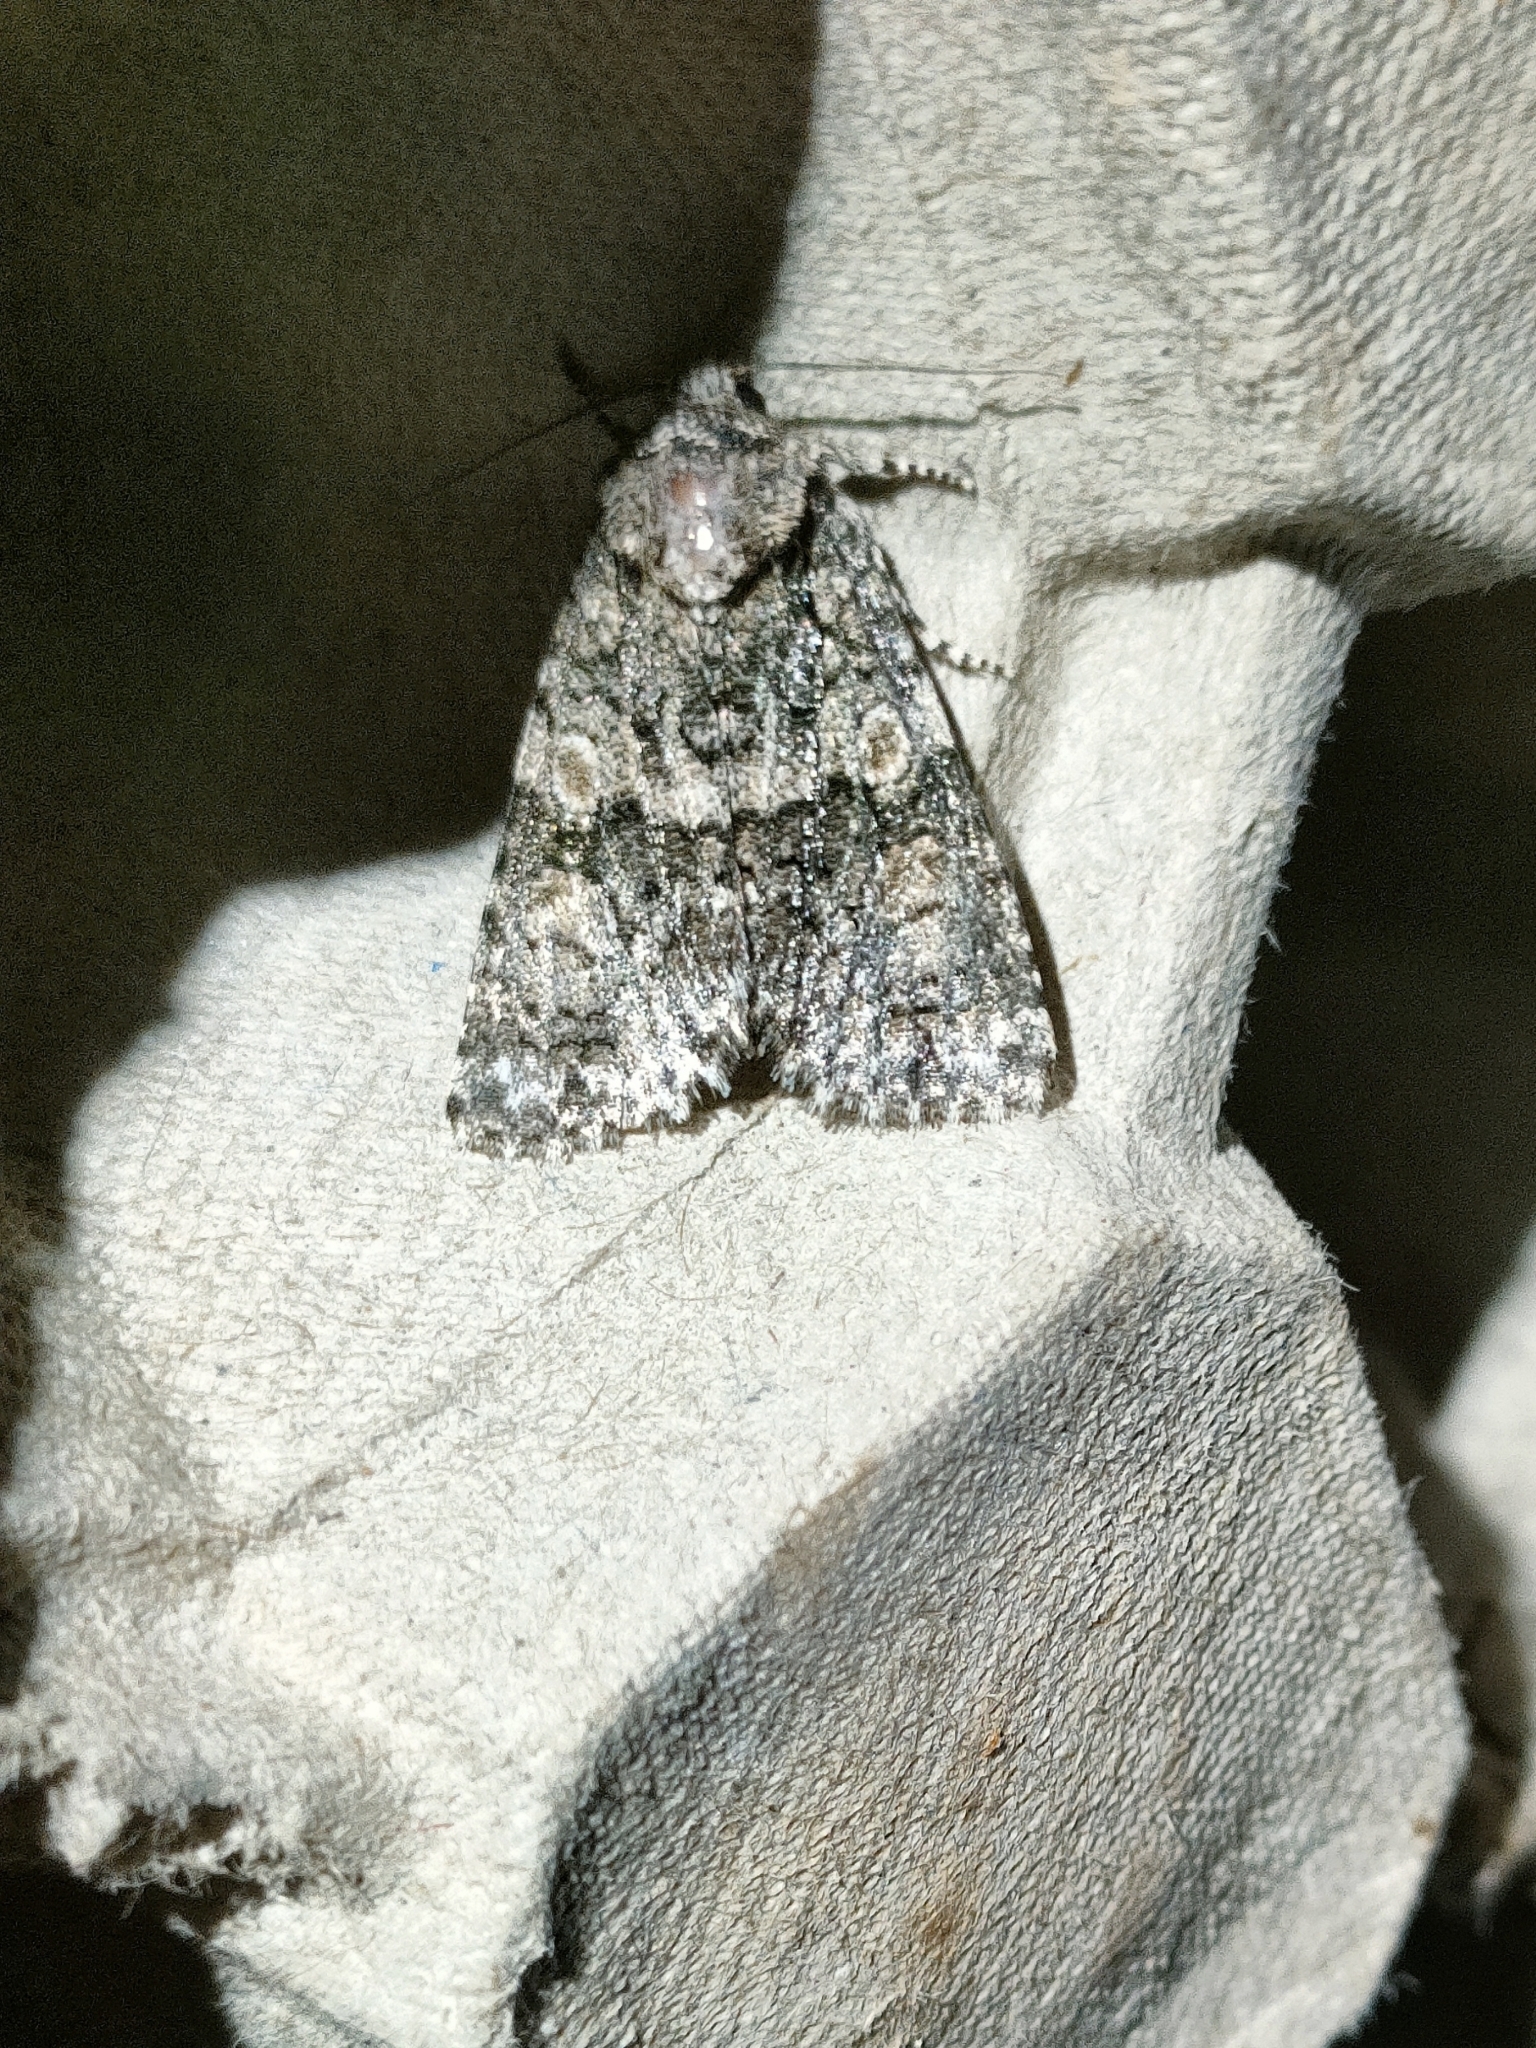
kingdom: Animalia
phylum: Arthropoda
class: Insecta
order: Lepidoptera
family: Noctuidae
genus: Craniophora
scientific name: Craniophora pontica
